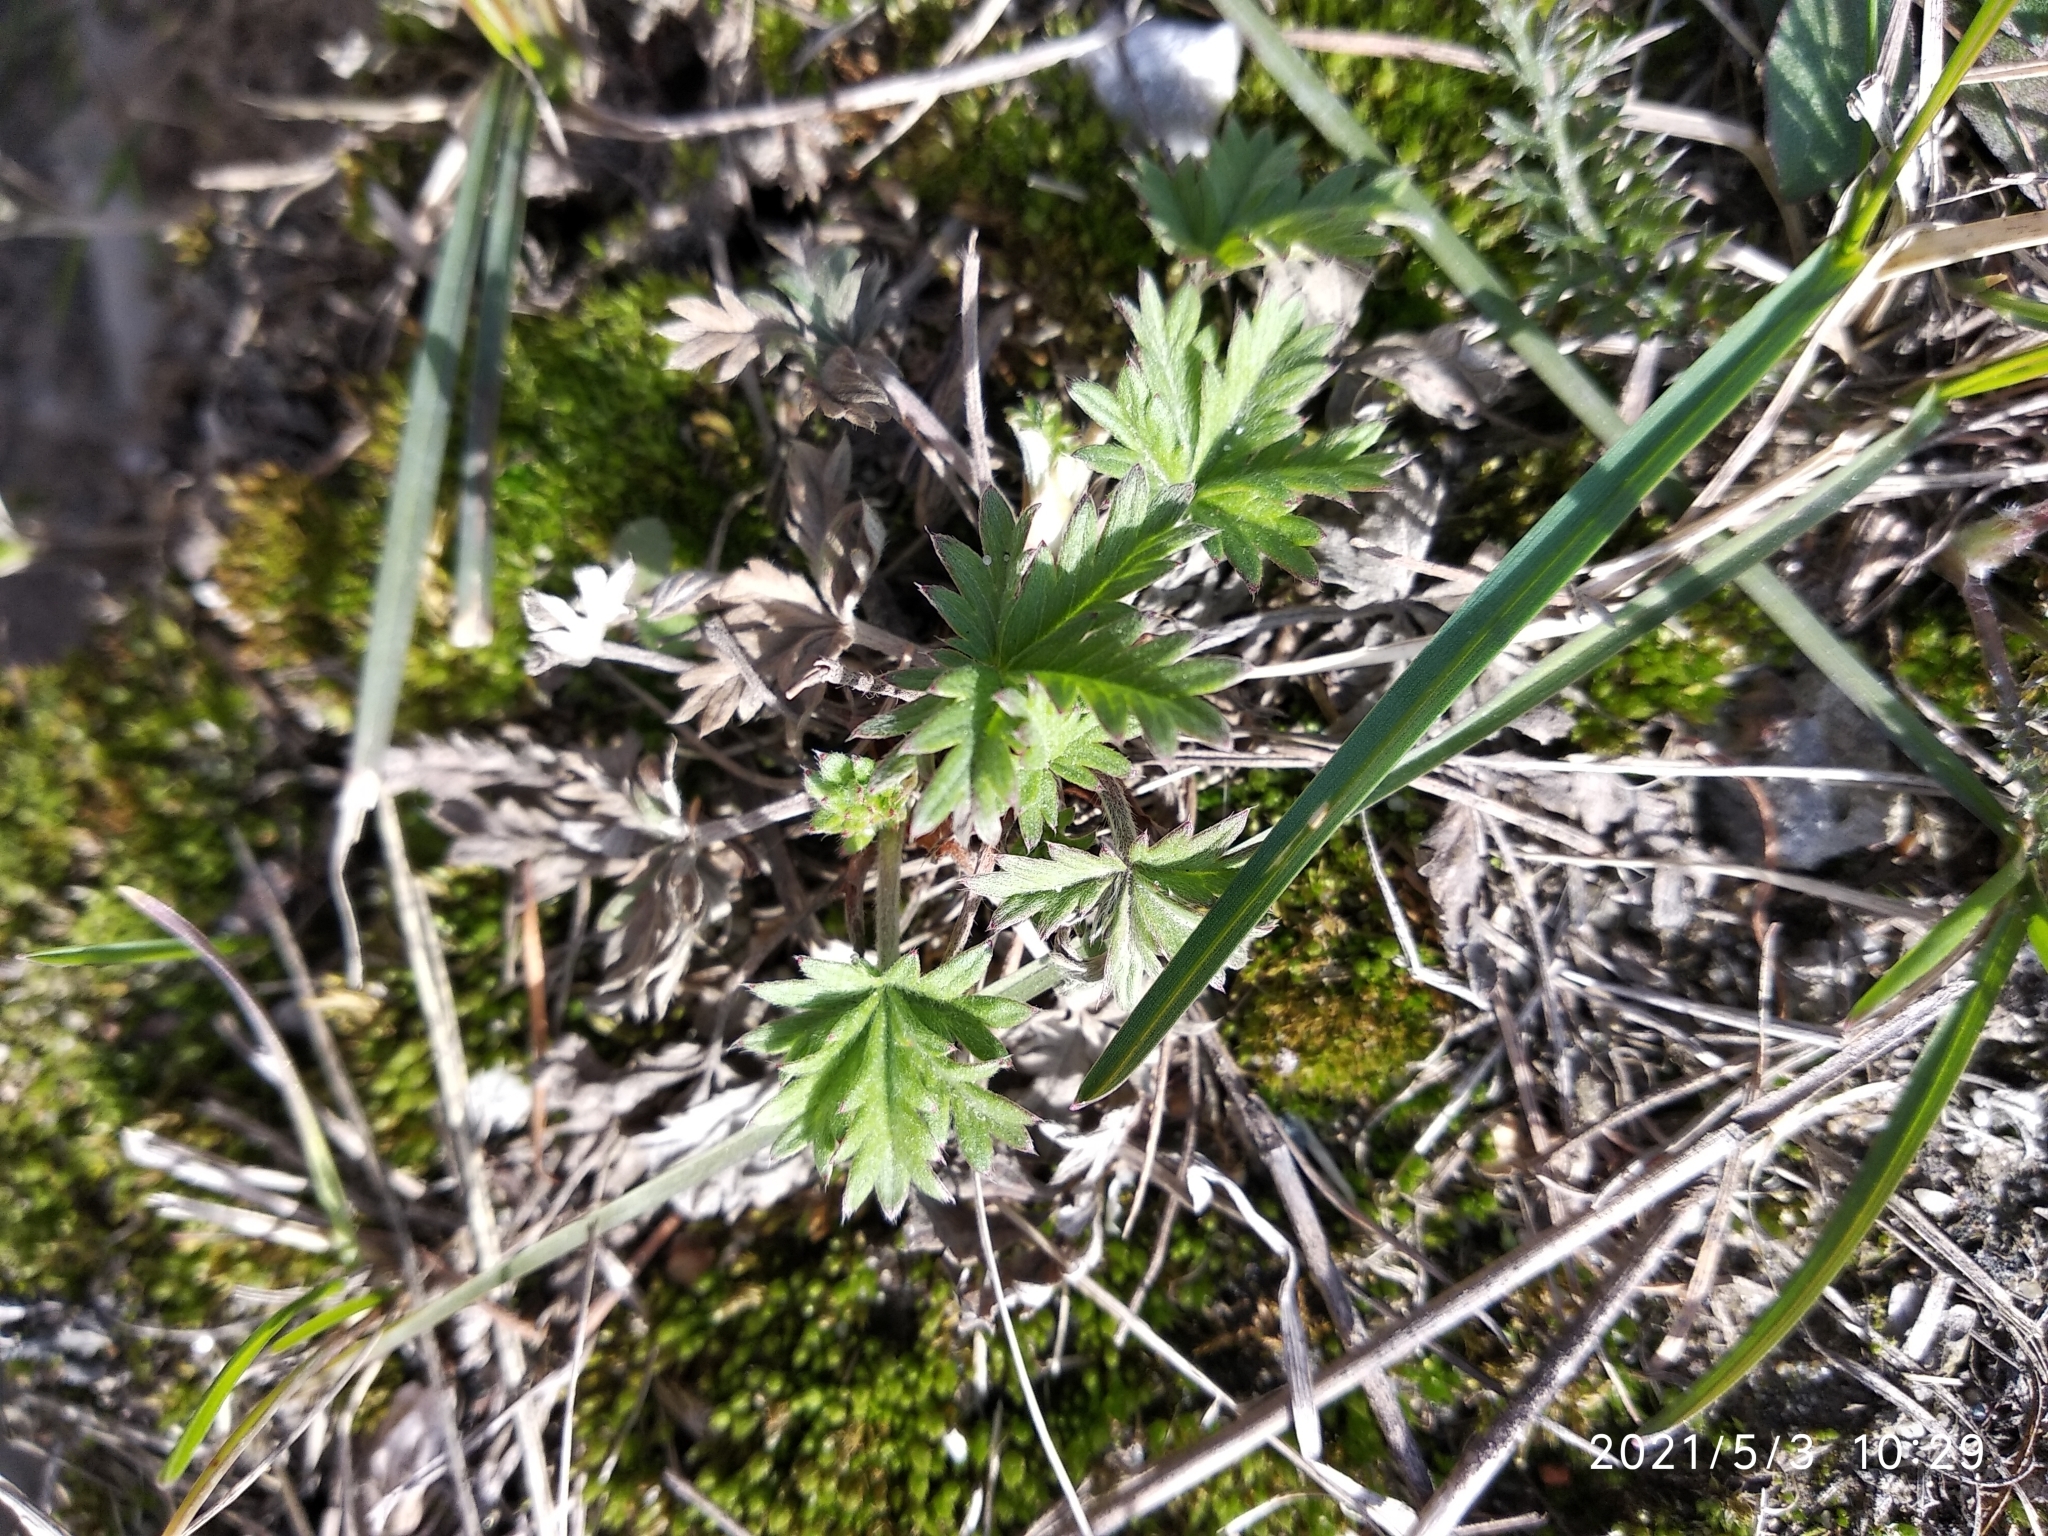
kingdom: Plantae
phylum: Tracheophyta
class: Magnoliopsida
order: Rosales
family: Rosaceae
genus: Potentilla
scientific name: Potentilla argentea
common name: Hoary cinquefoil
